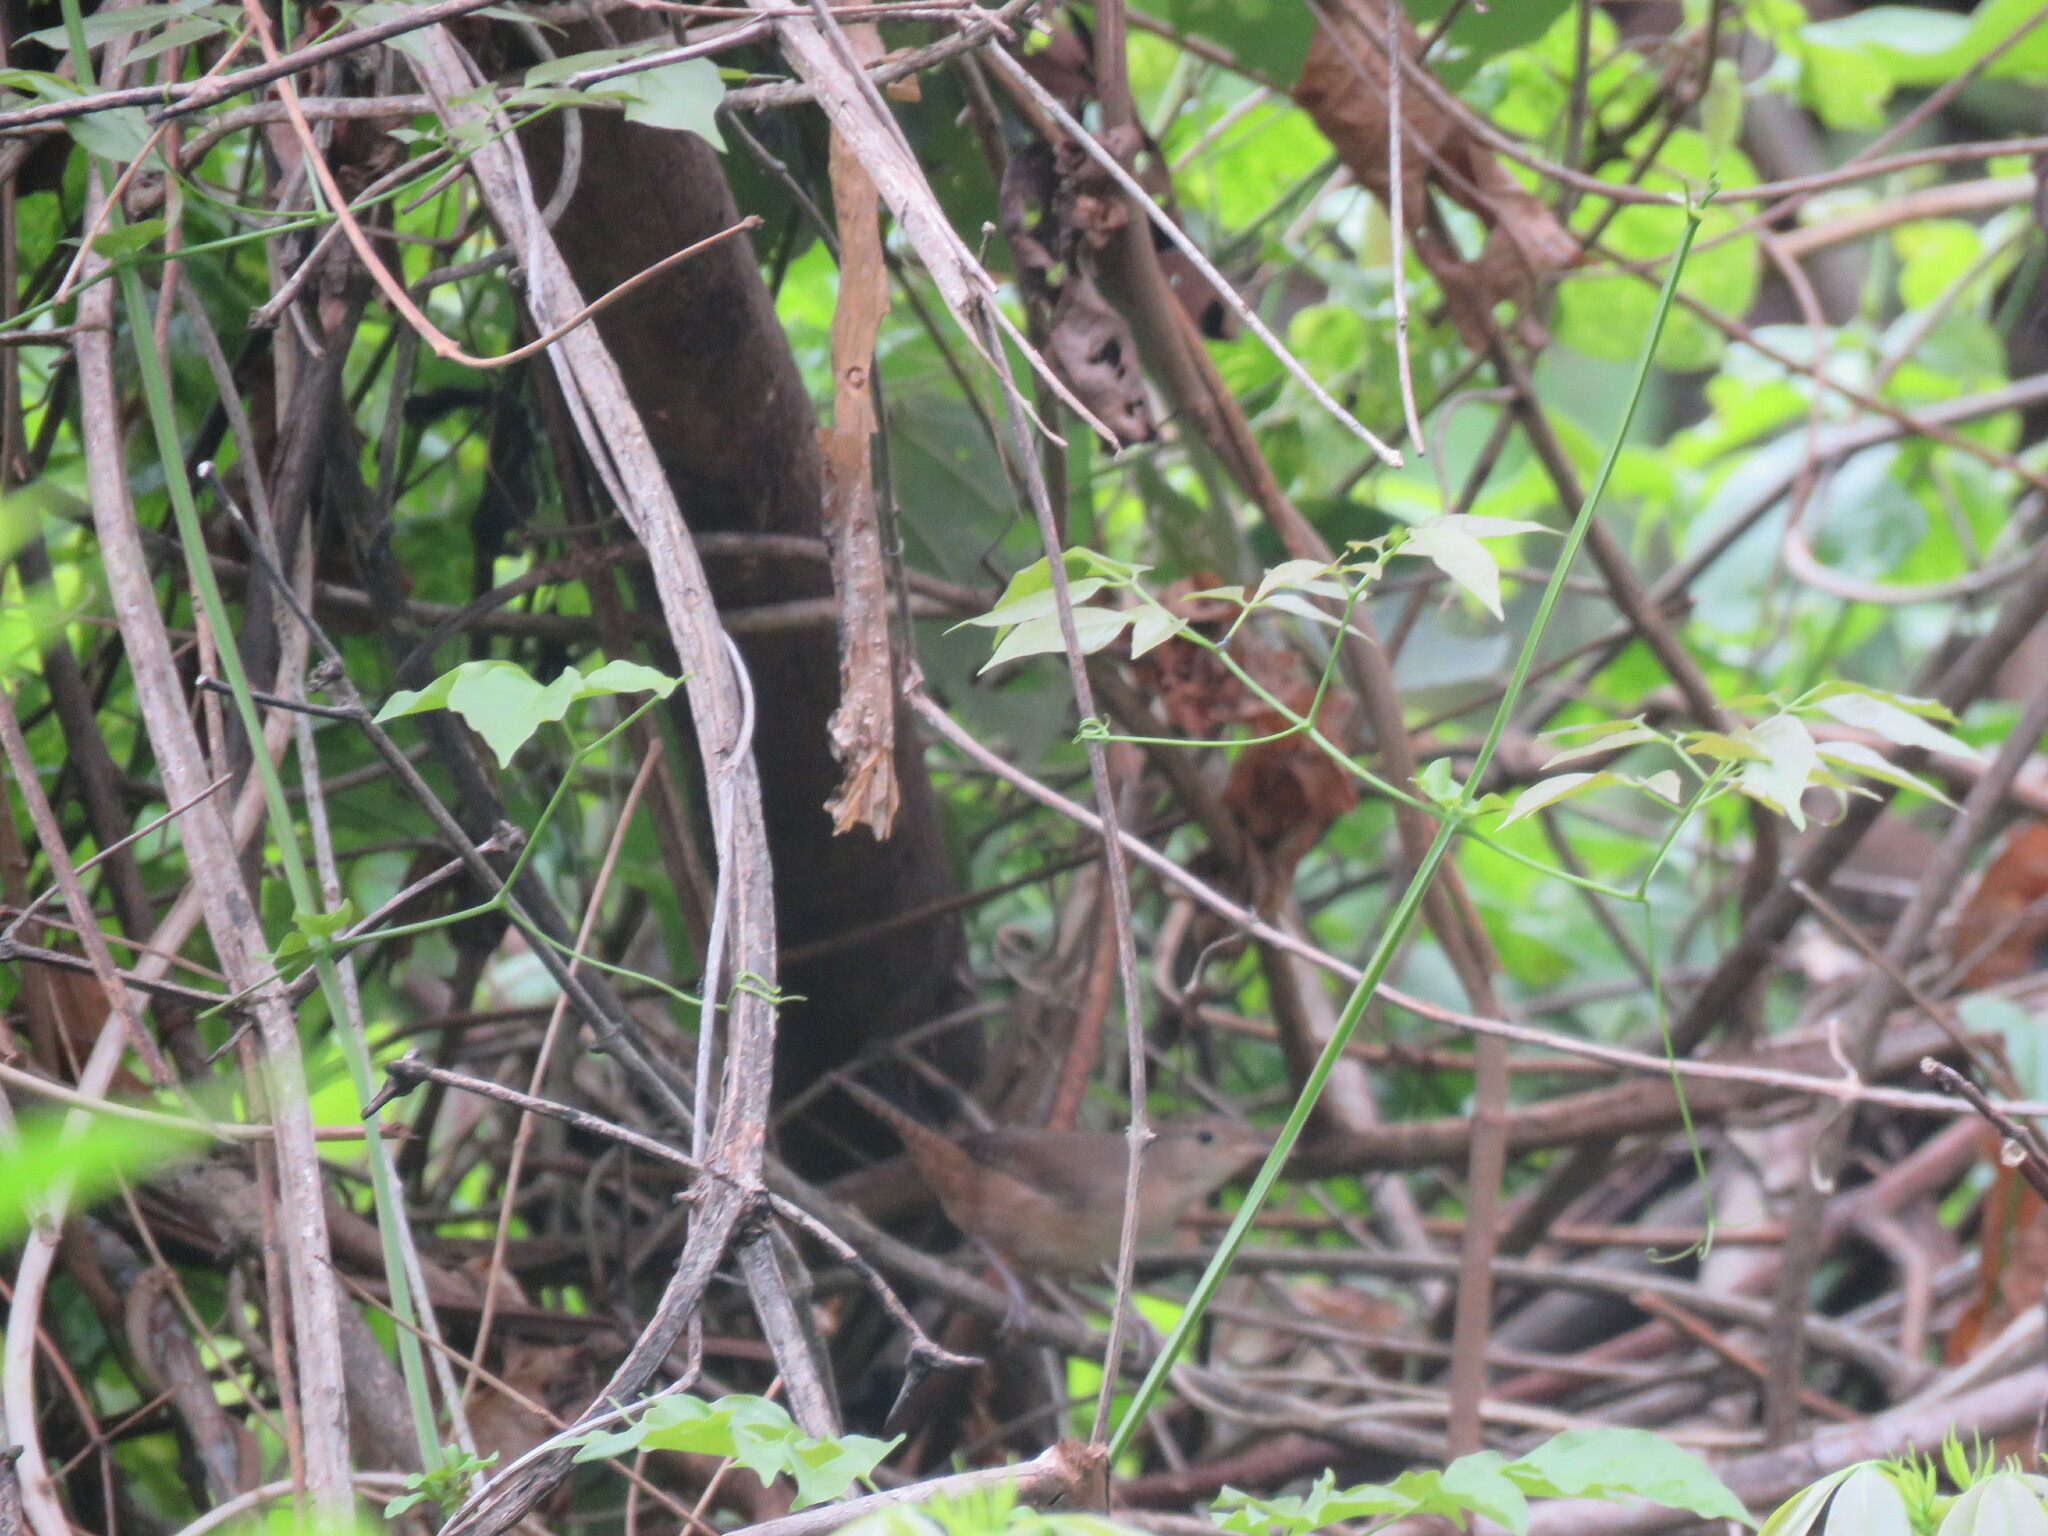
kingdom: Animalia
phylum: Chordata
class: Aves
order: Passeriformes
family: Troglodytidae
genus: Troglodytes
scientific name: Troglodytes aedon
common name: House wren
